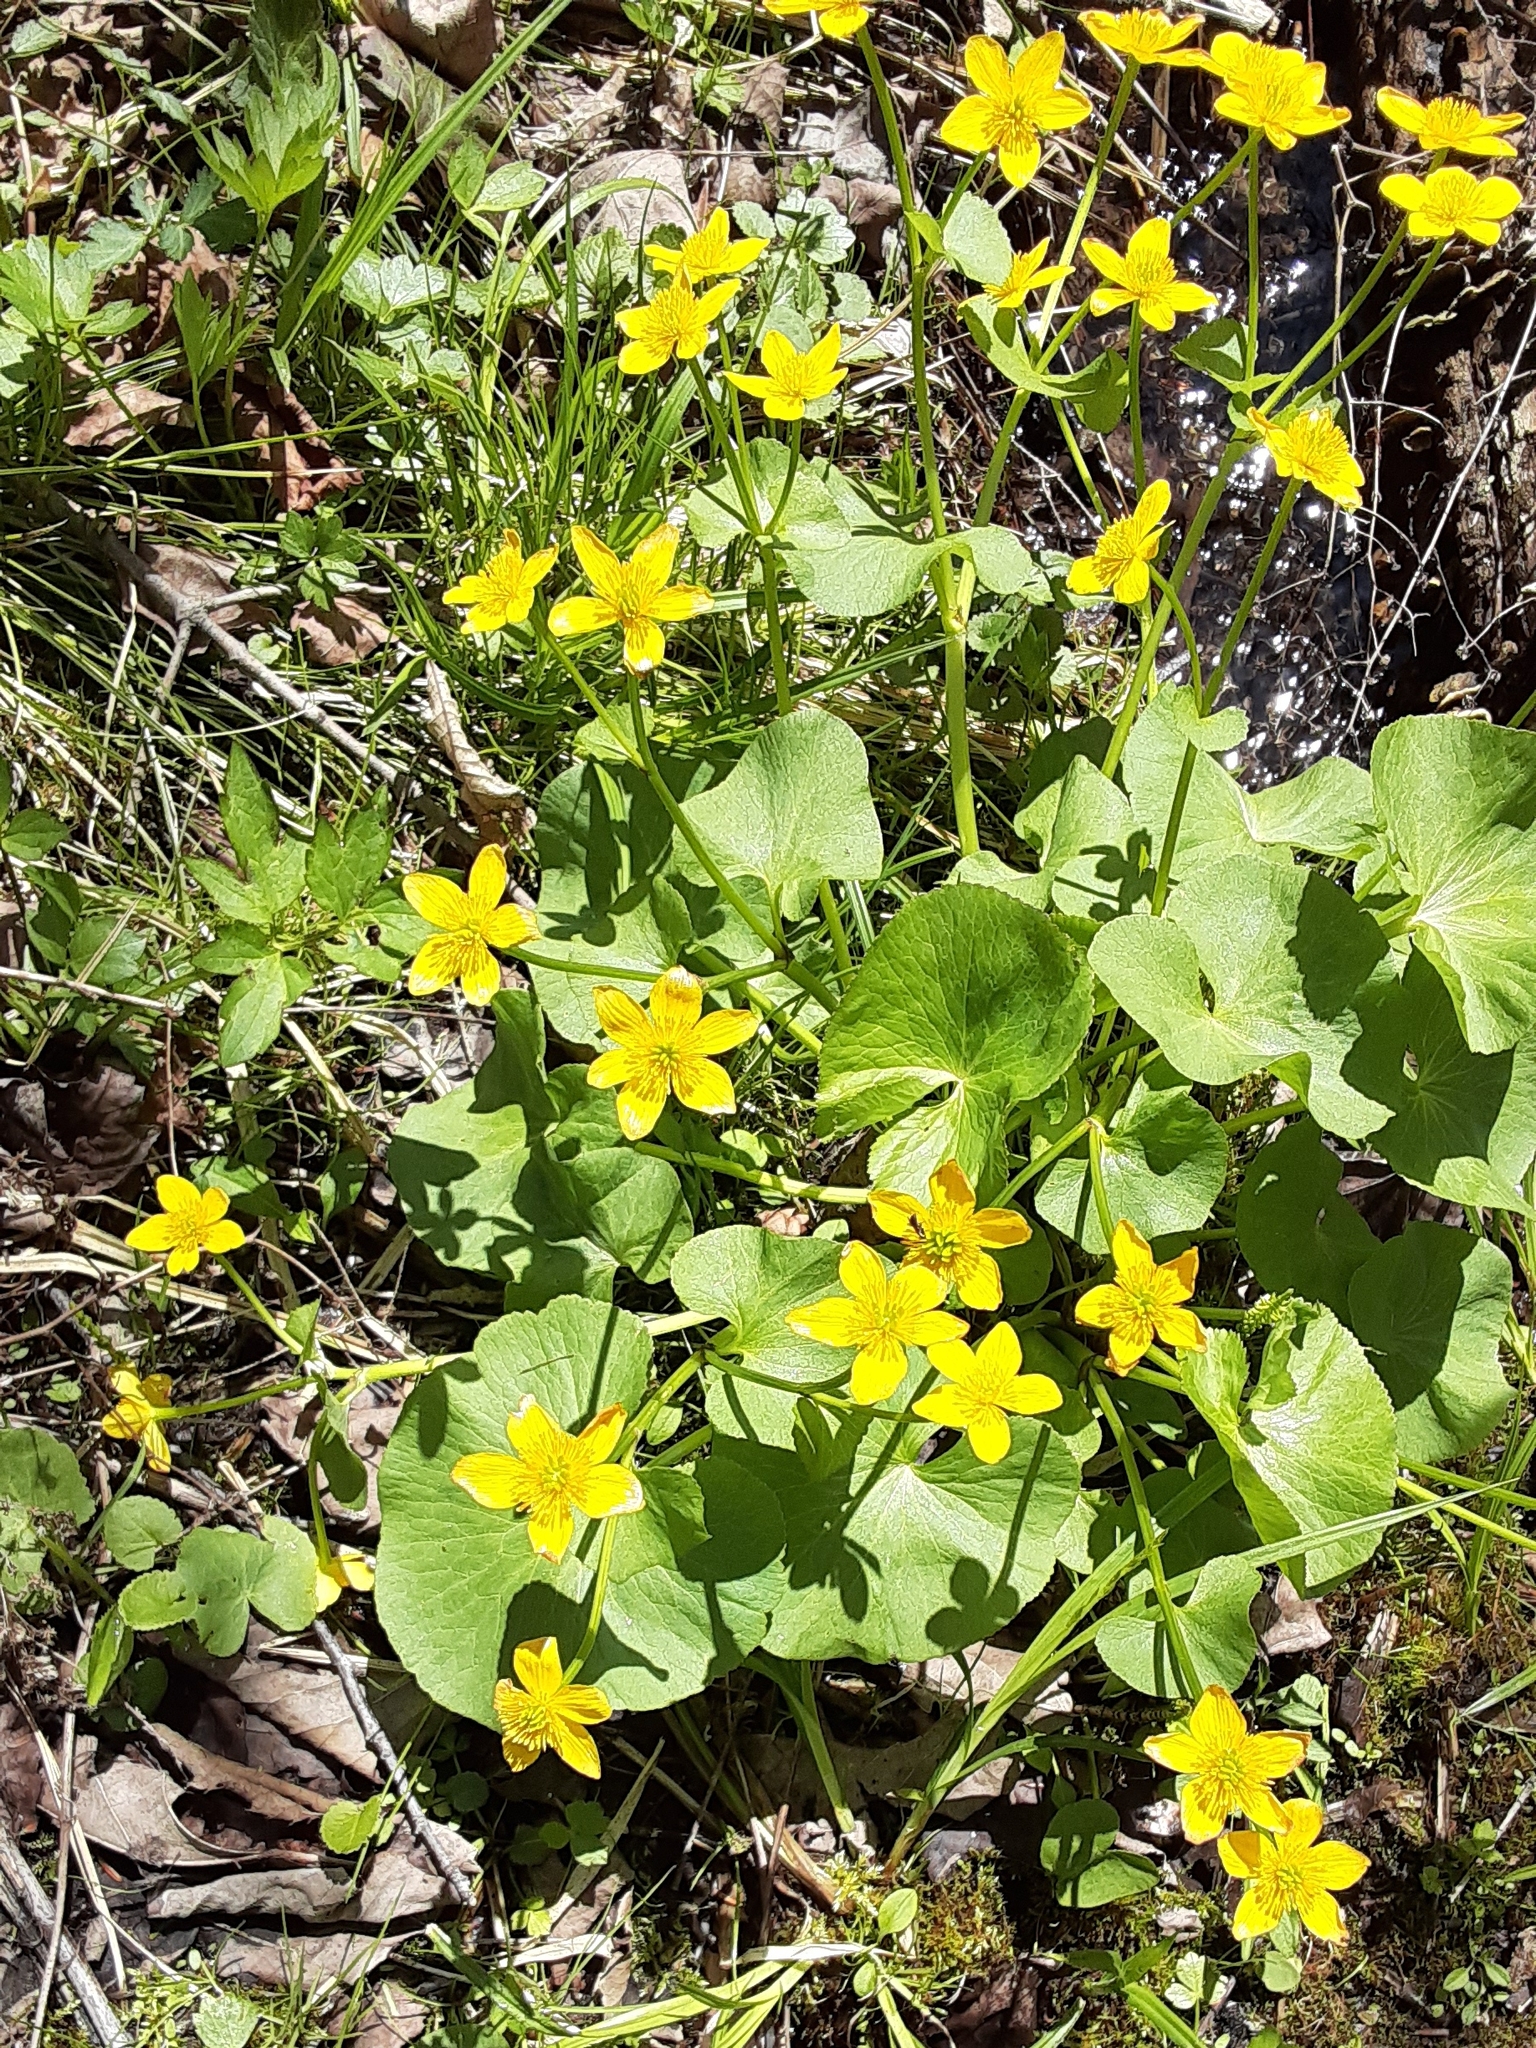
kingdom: Plantae
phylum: Tracheophyta
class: Magnoliopsida
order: Ranunculales
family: Ranunculaceae
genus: Caltha
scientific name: Caltha palustris
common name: Marsh marigold
